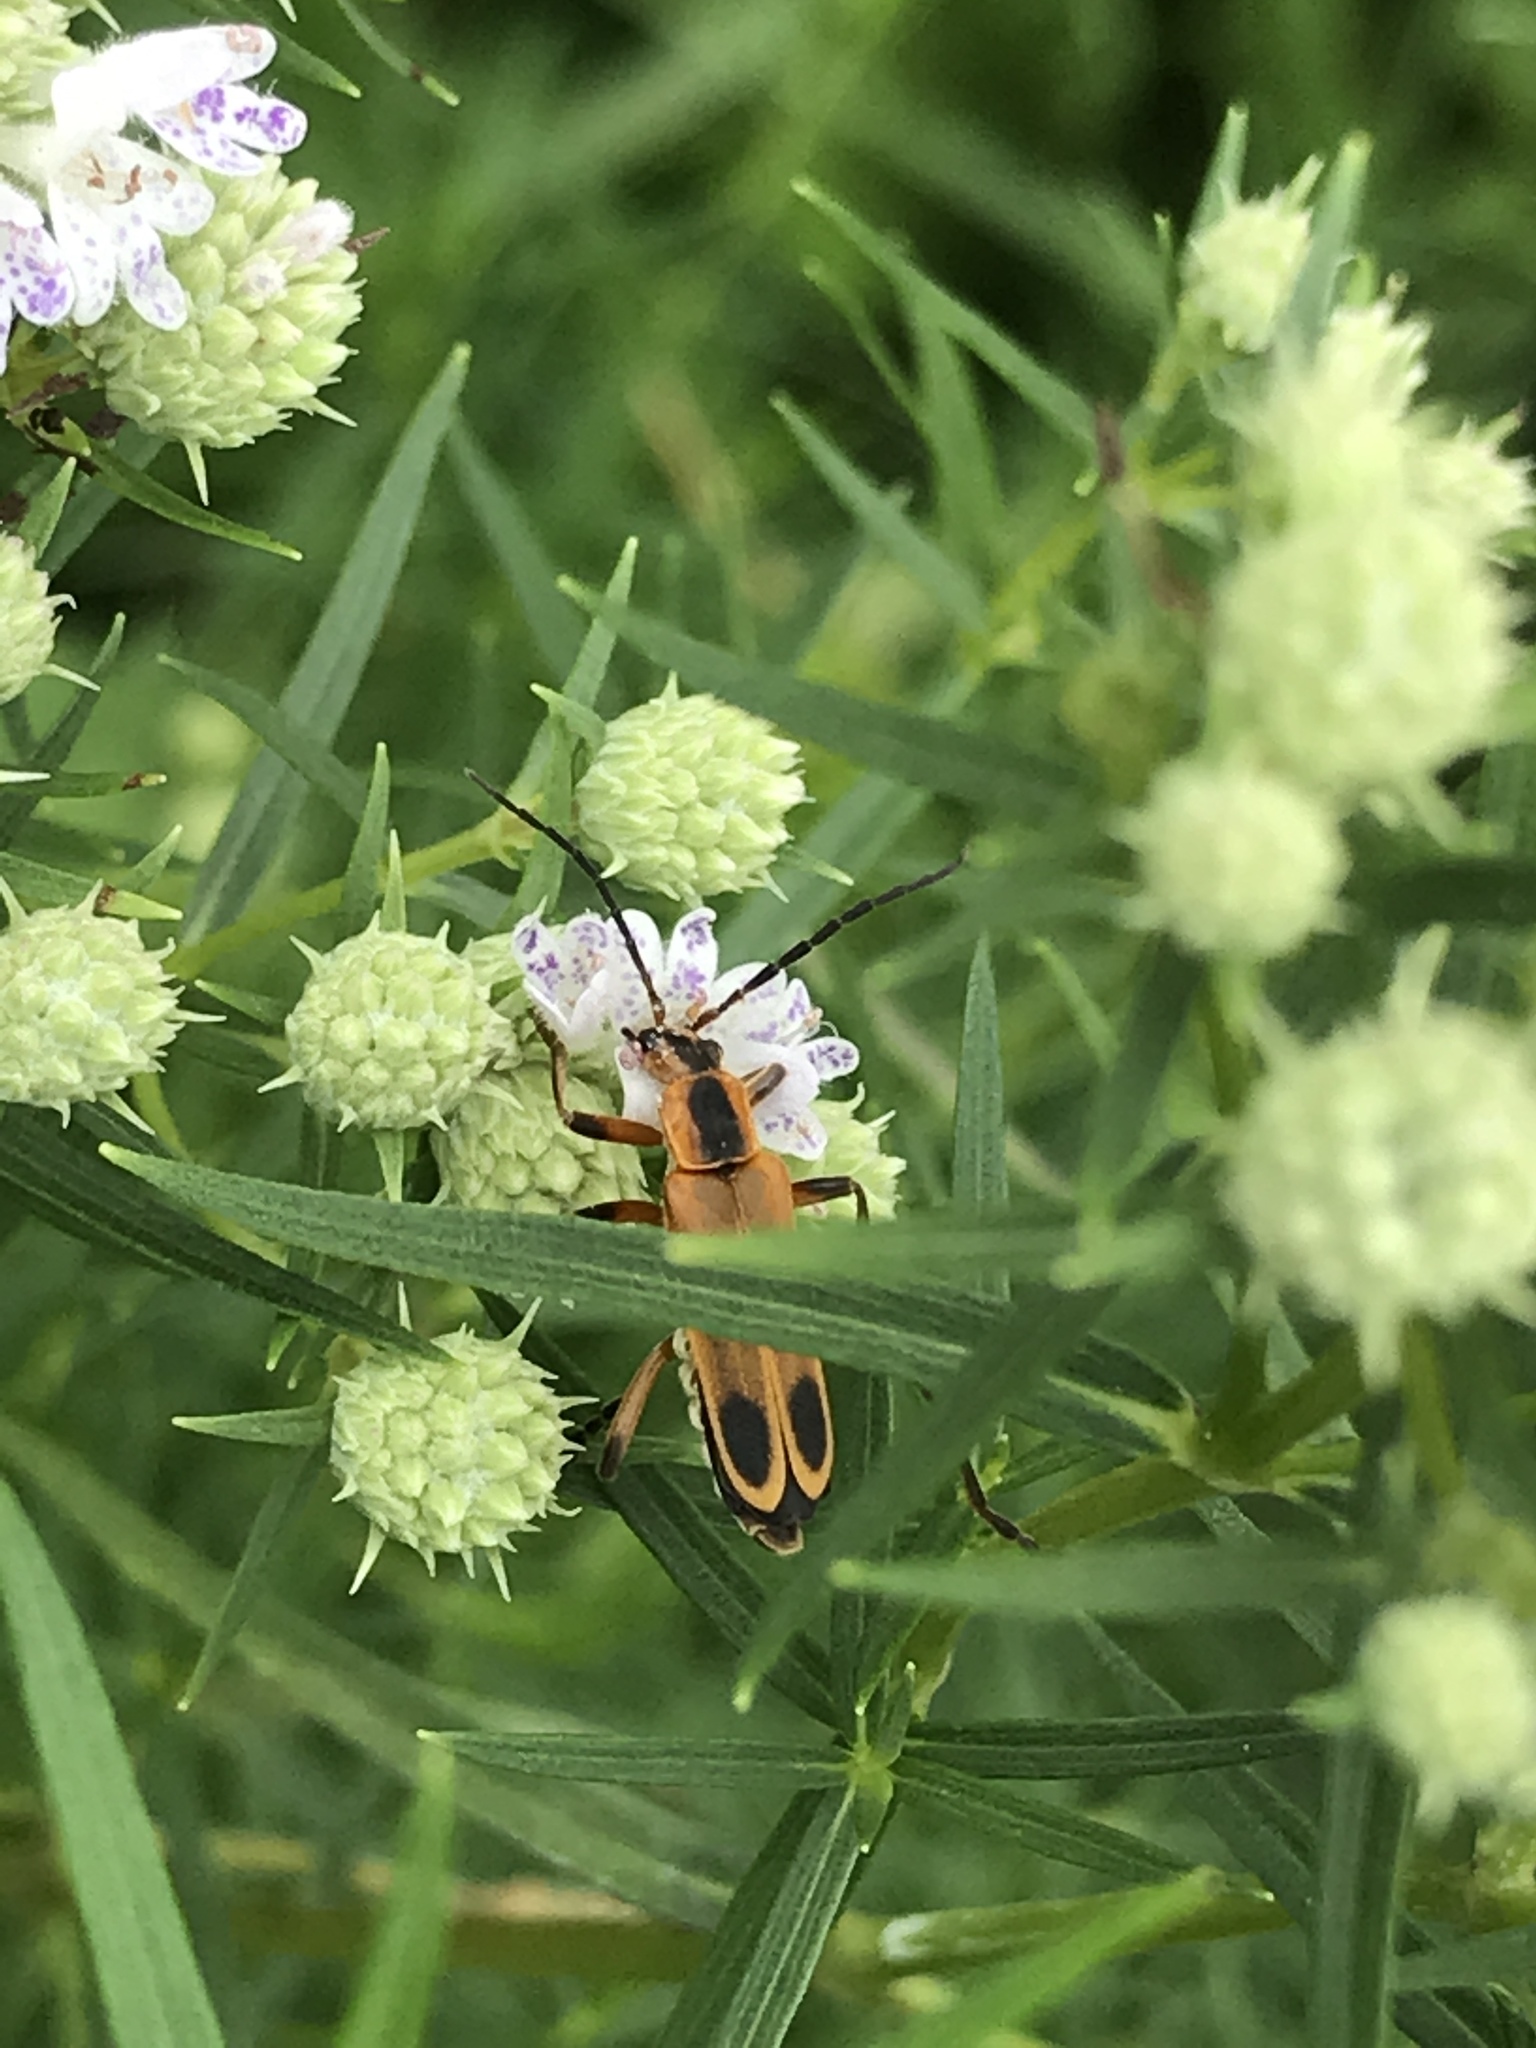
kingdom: Animalia
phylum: Arthropoda
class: Insecta
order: Coleoptera
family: Cantharidae
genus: Chauliognathus
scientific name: Chauliognathus marginatus
